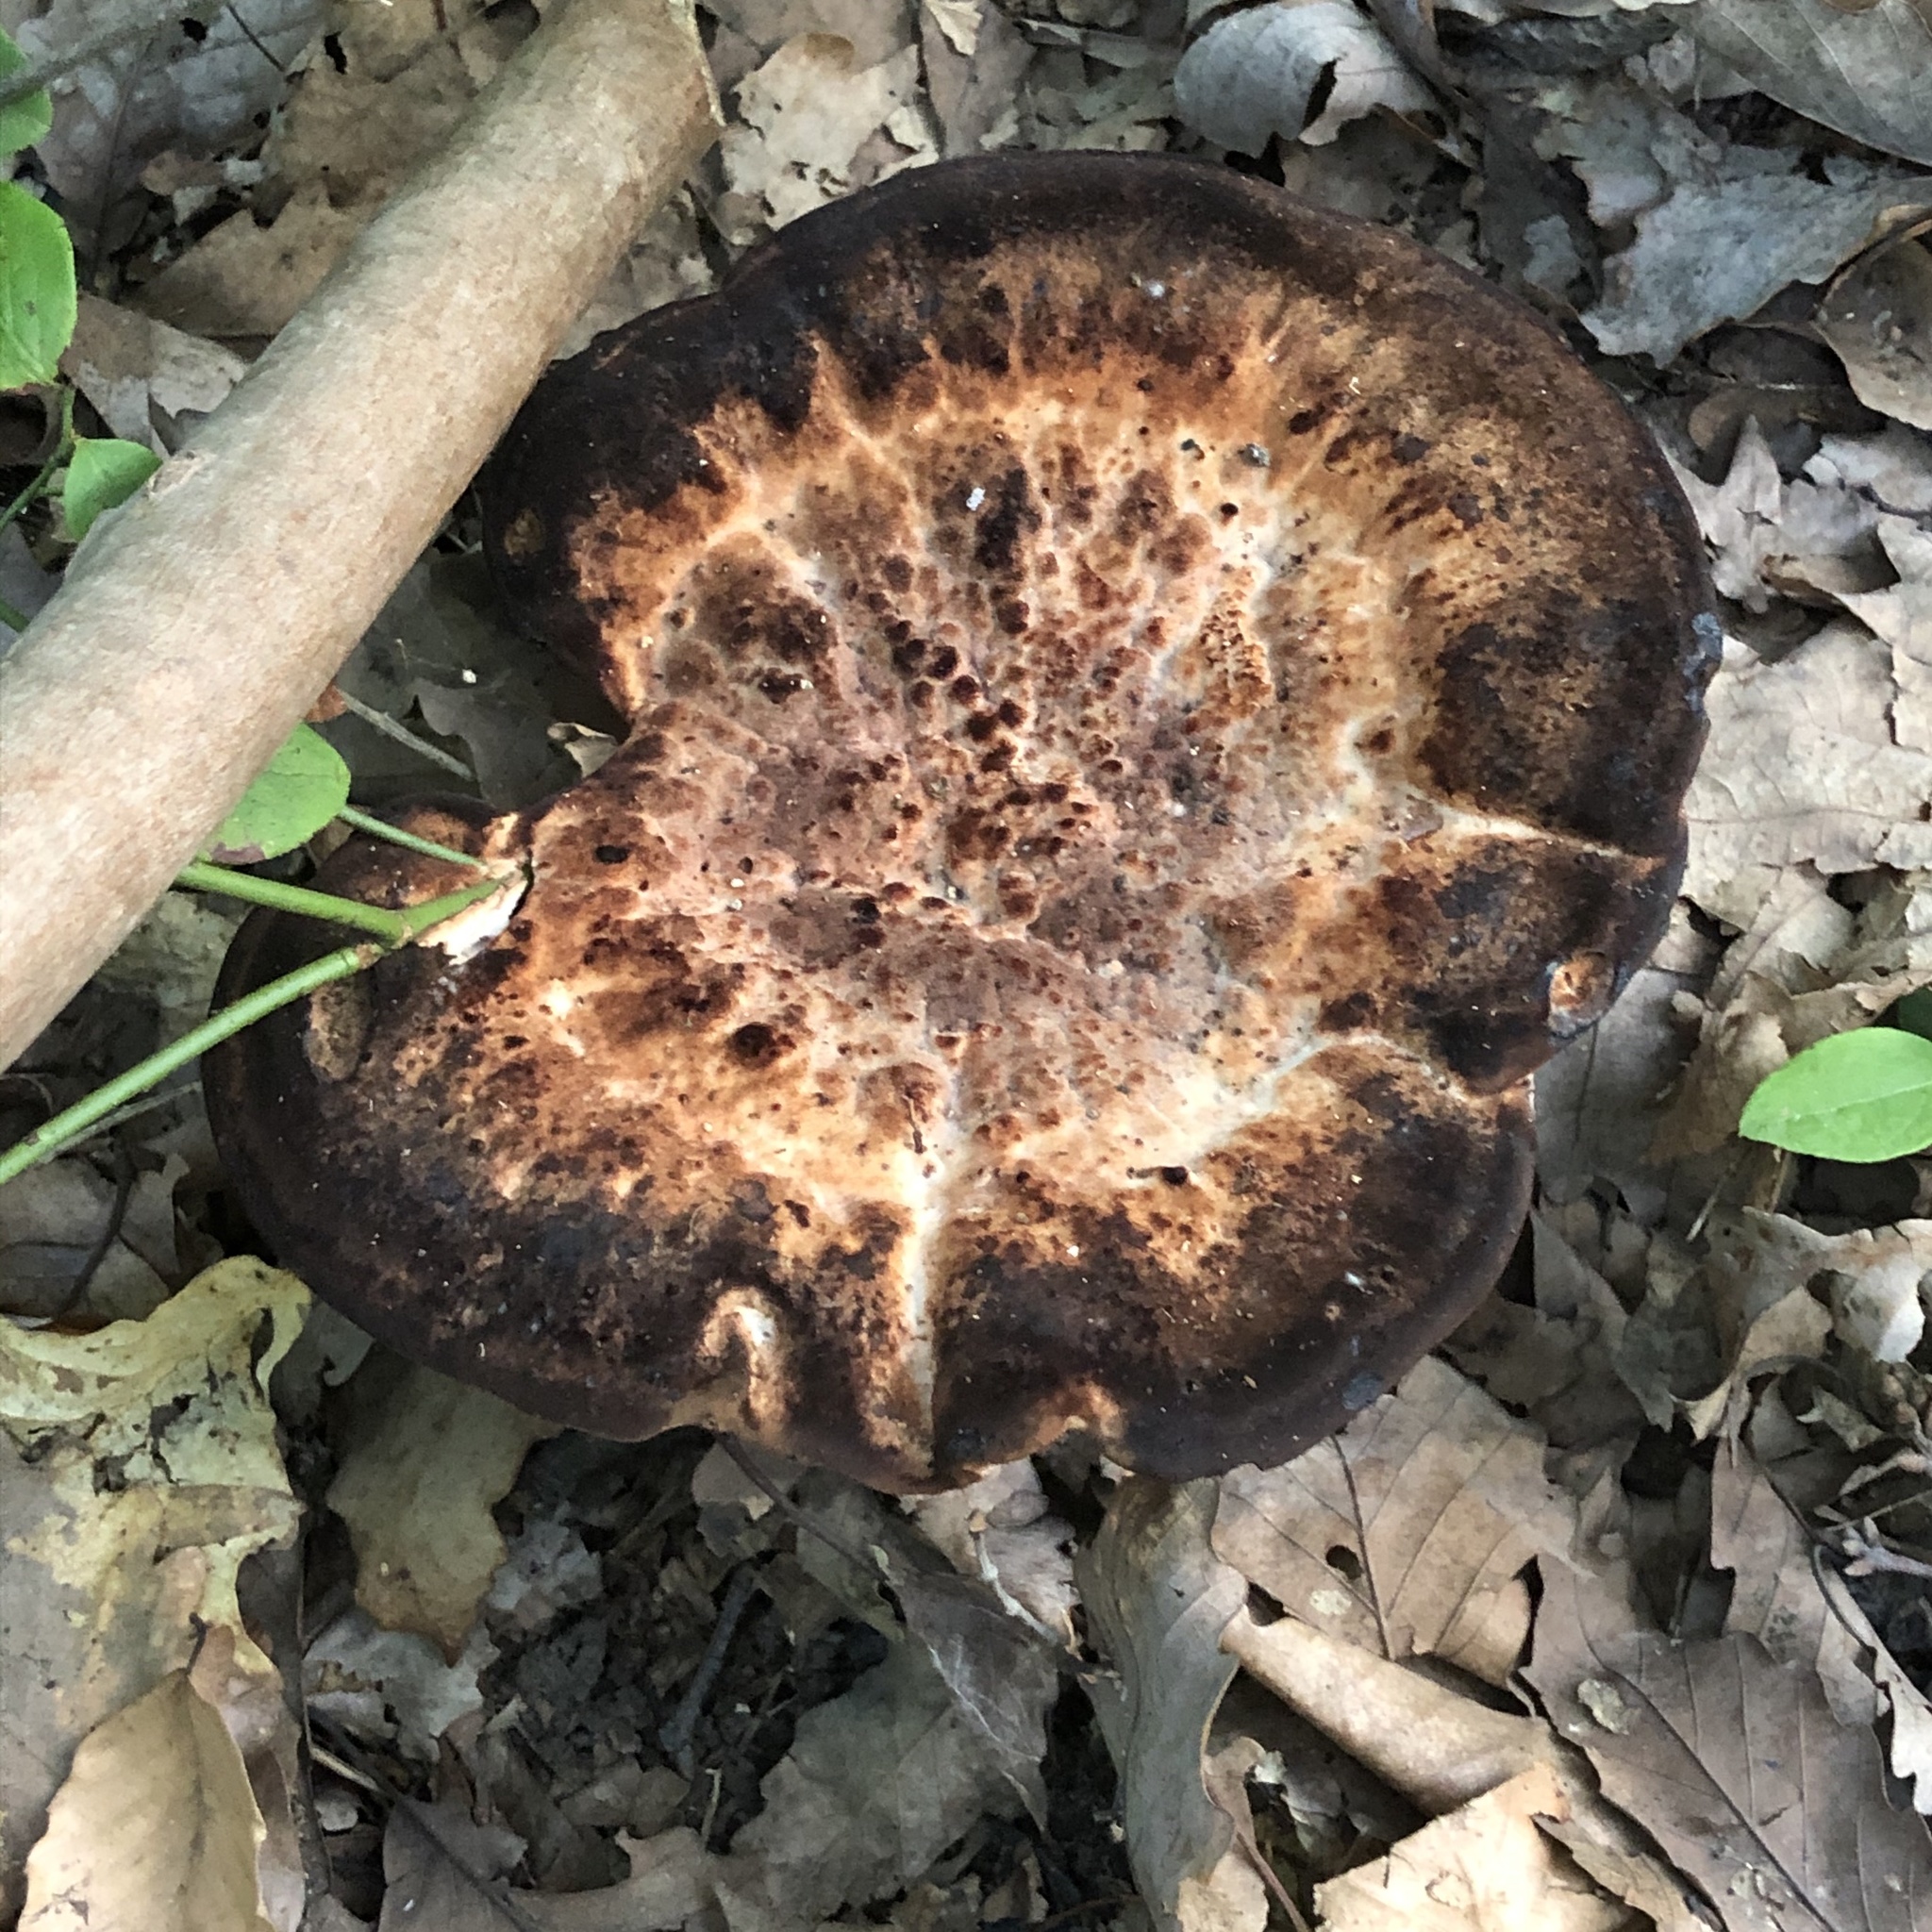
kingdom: Fungi
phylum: Basidiomycota
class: Agaricomycetes
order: Polyporales
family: Laetiporaceae
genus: Berkcurtia
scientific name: Berkcurtia persicina
